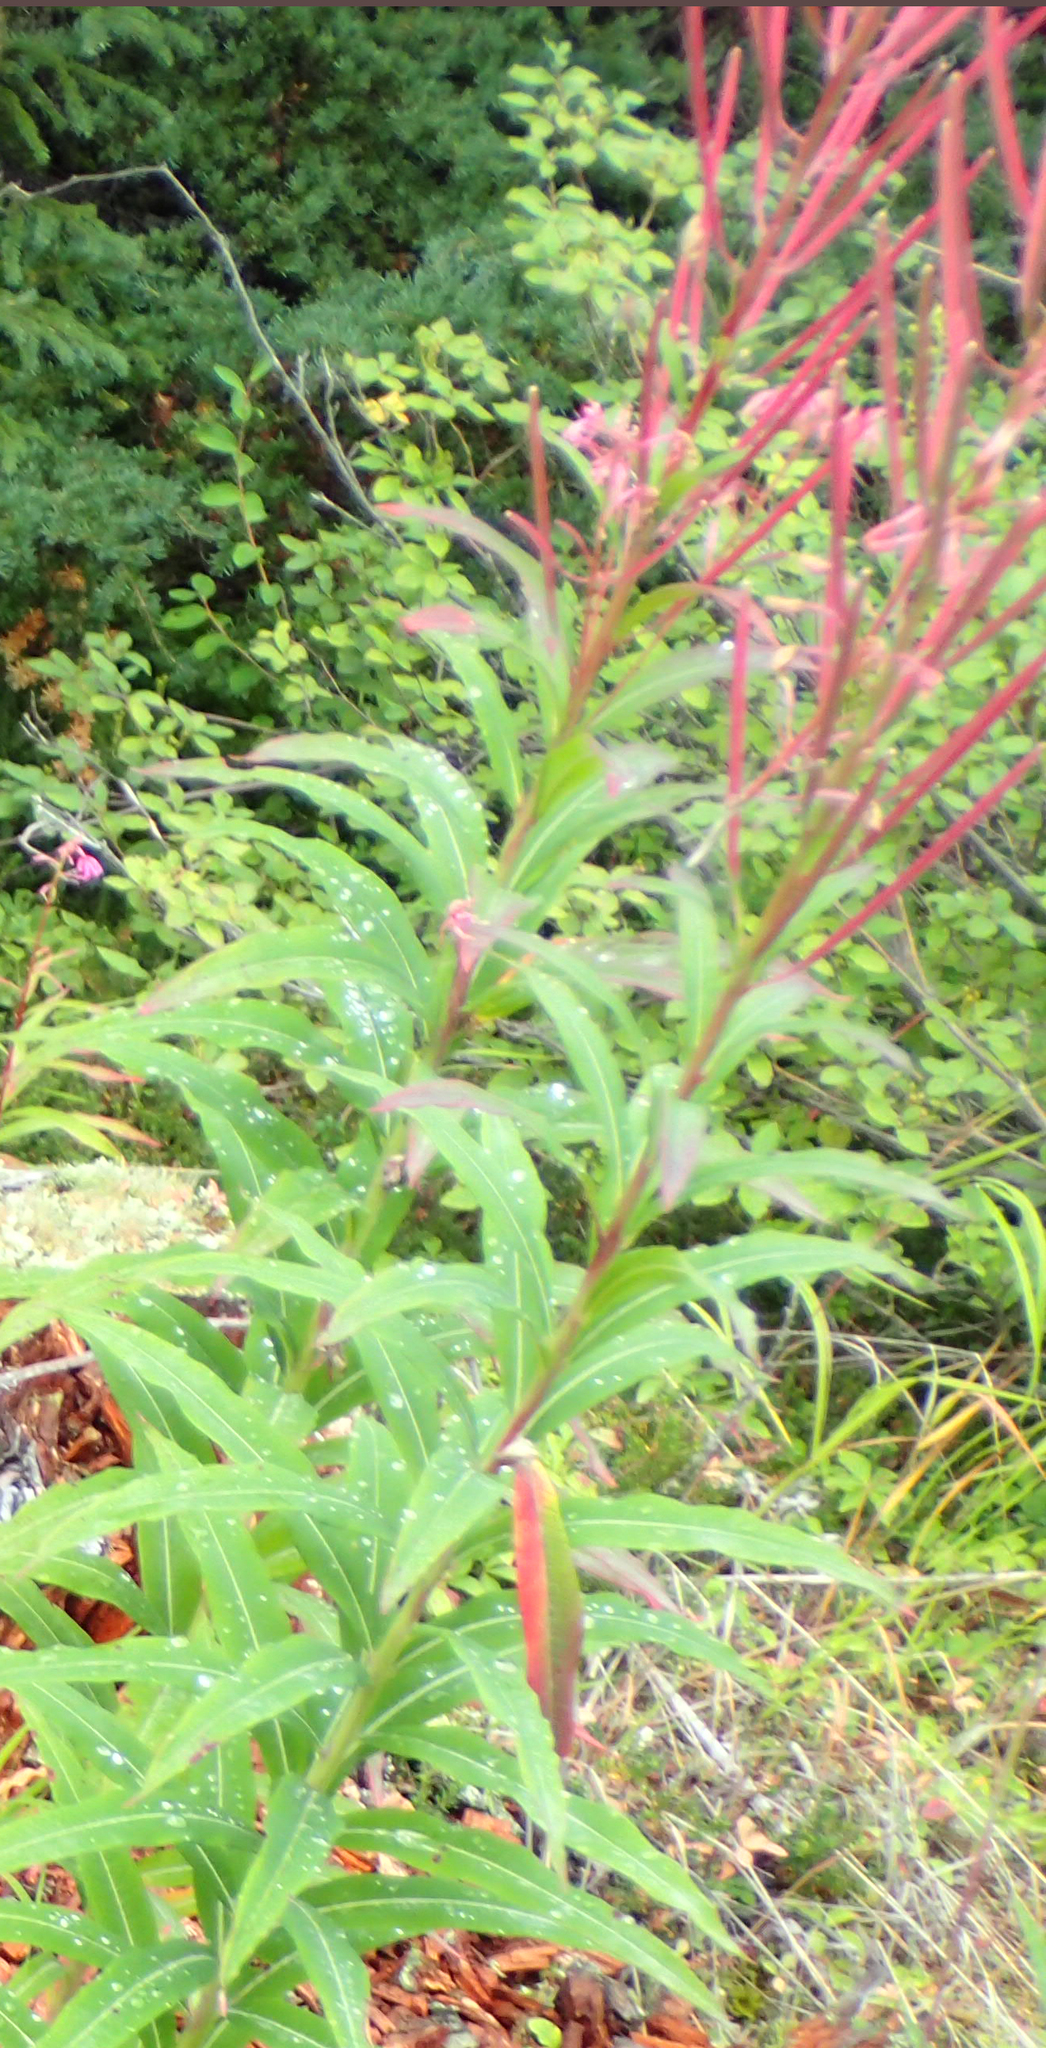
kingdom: Plantae
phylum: Tracheophyta
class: Magnoliopsida
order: Myrtales
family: Onagraceae
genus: Chamaenerion
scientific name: Chamaenerion angustifolium
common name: Fireweed
